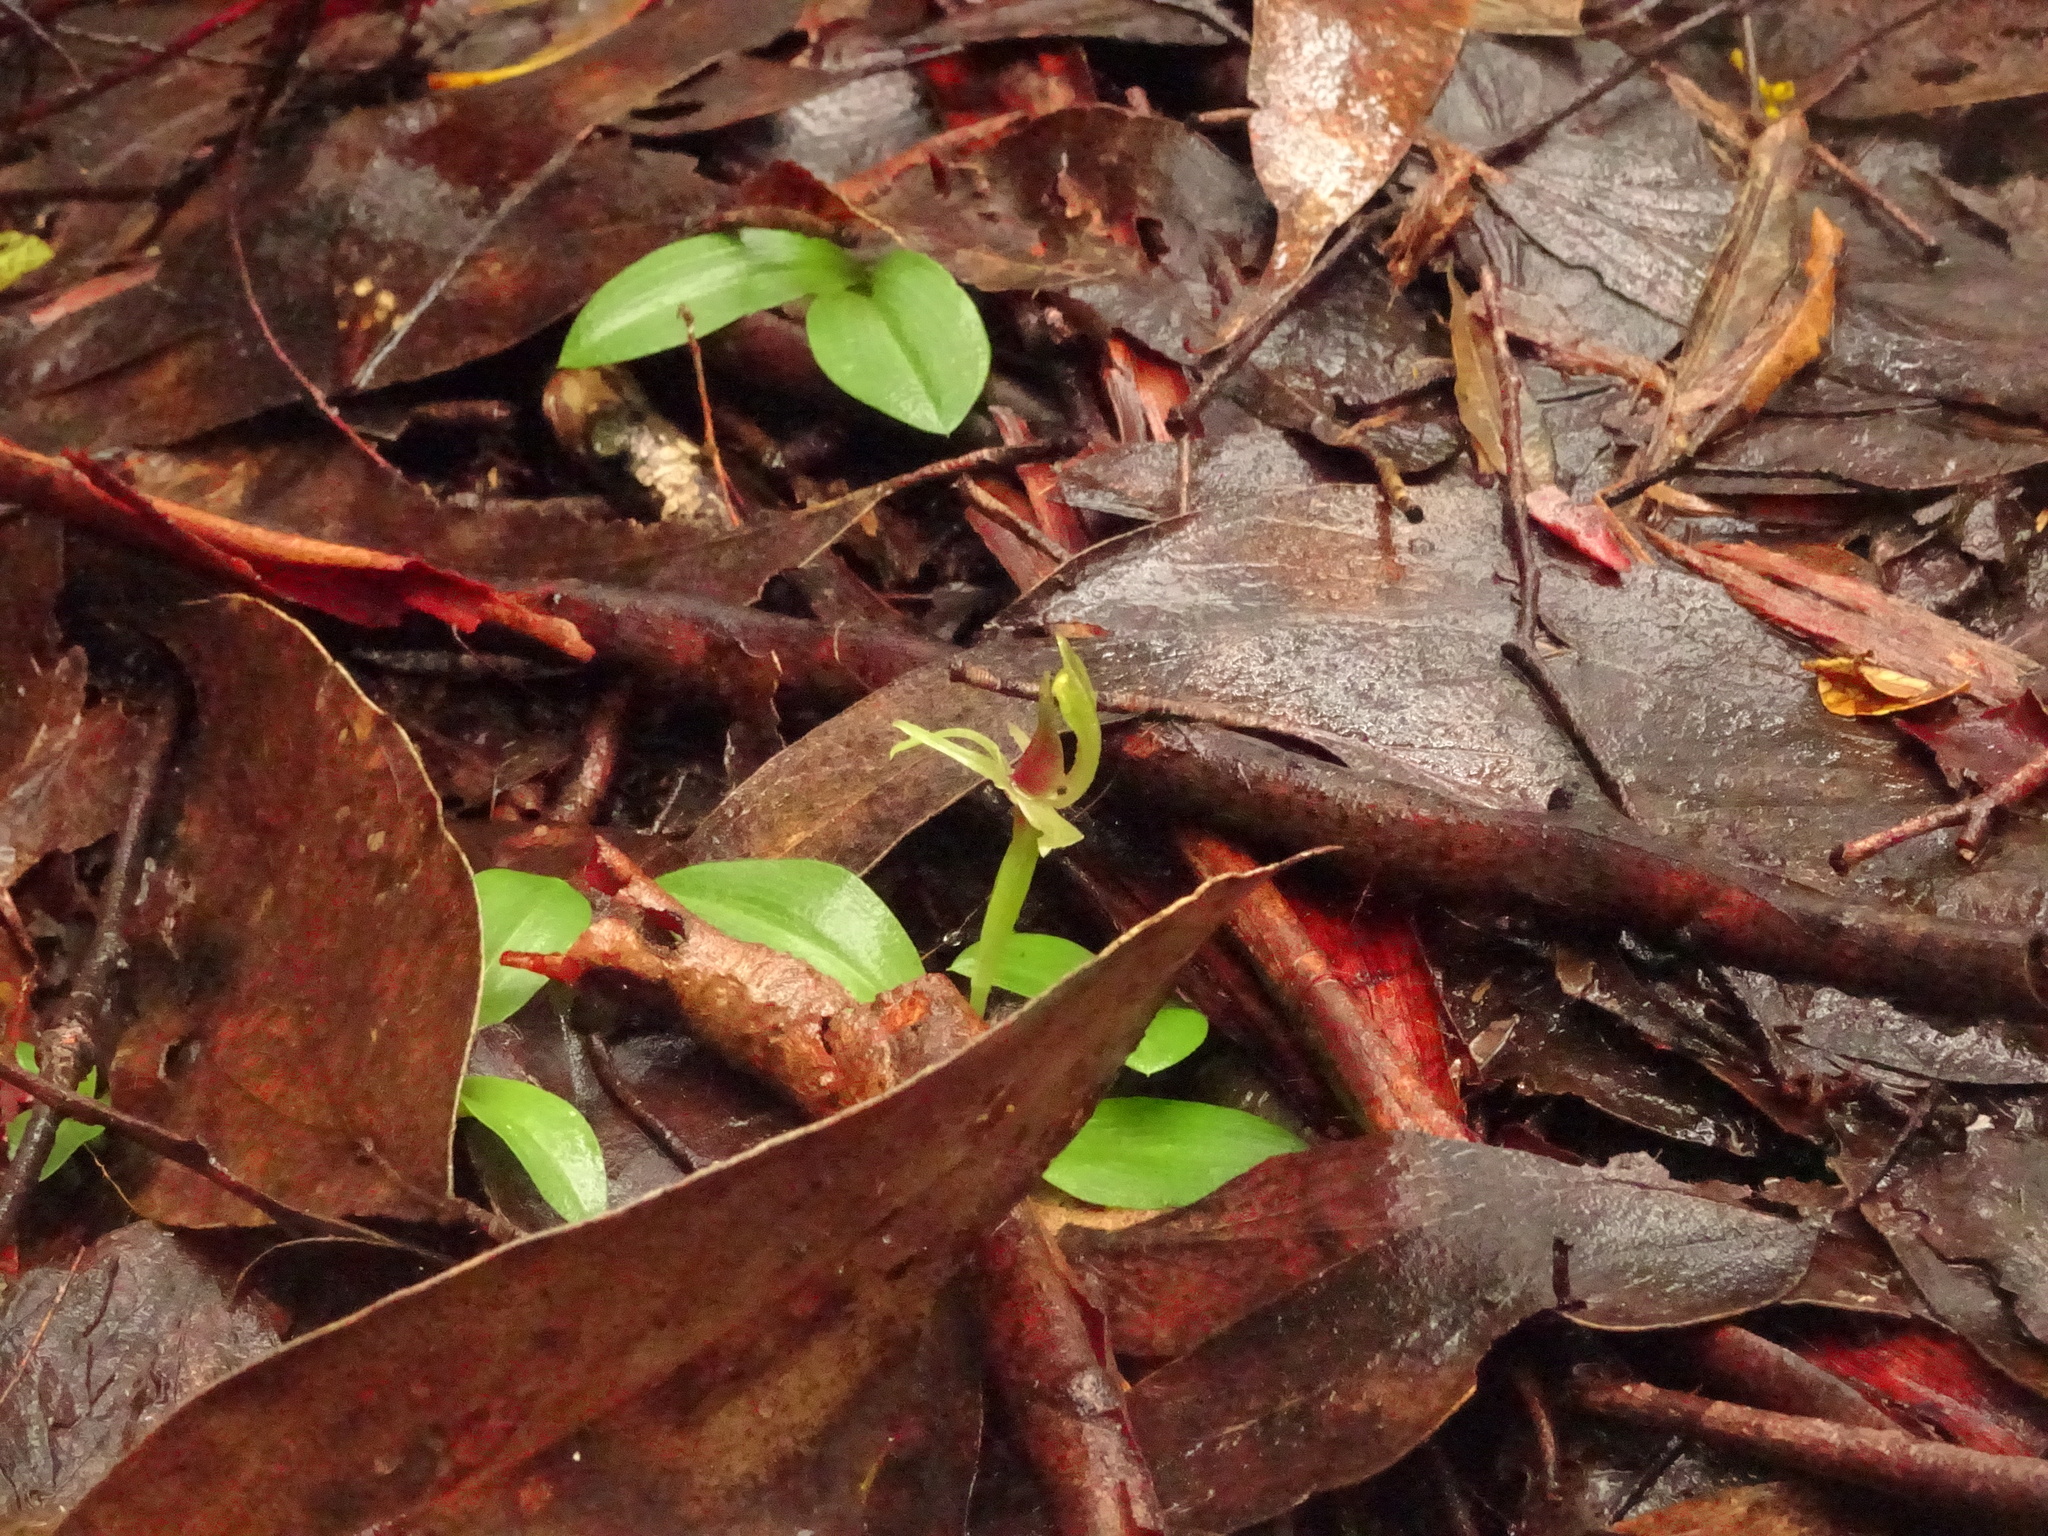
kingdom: Plantae
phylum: Tracheophyta
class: Liliopsida
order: Asparagales
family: Orchidaceae
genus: Chiloglottis
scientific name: Chiloglottis
